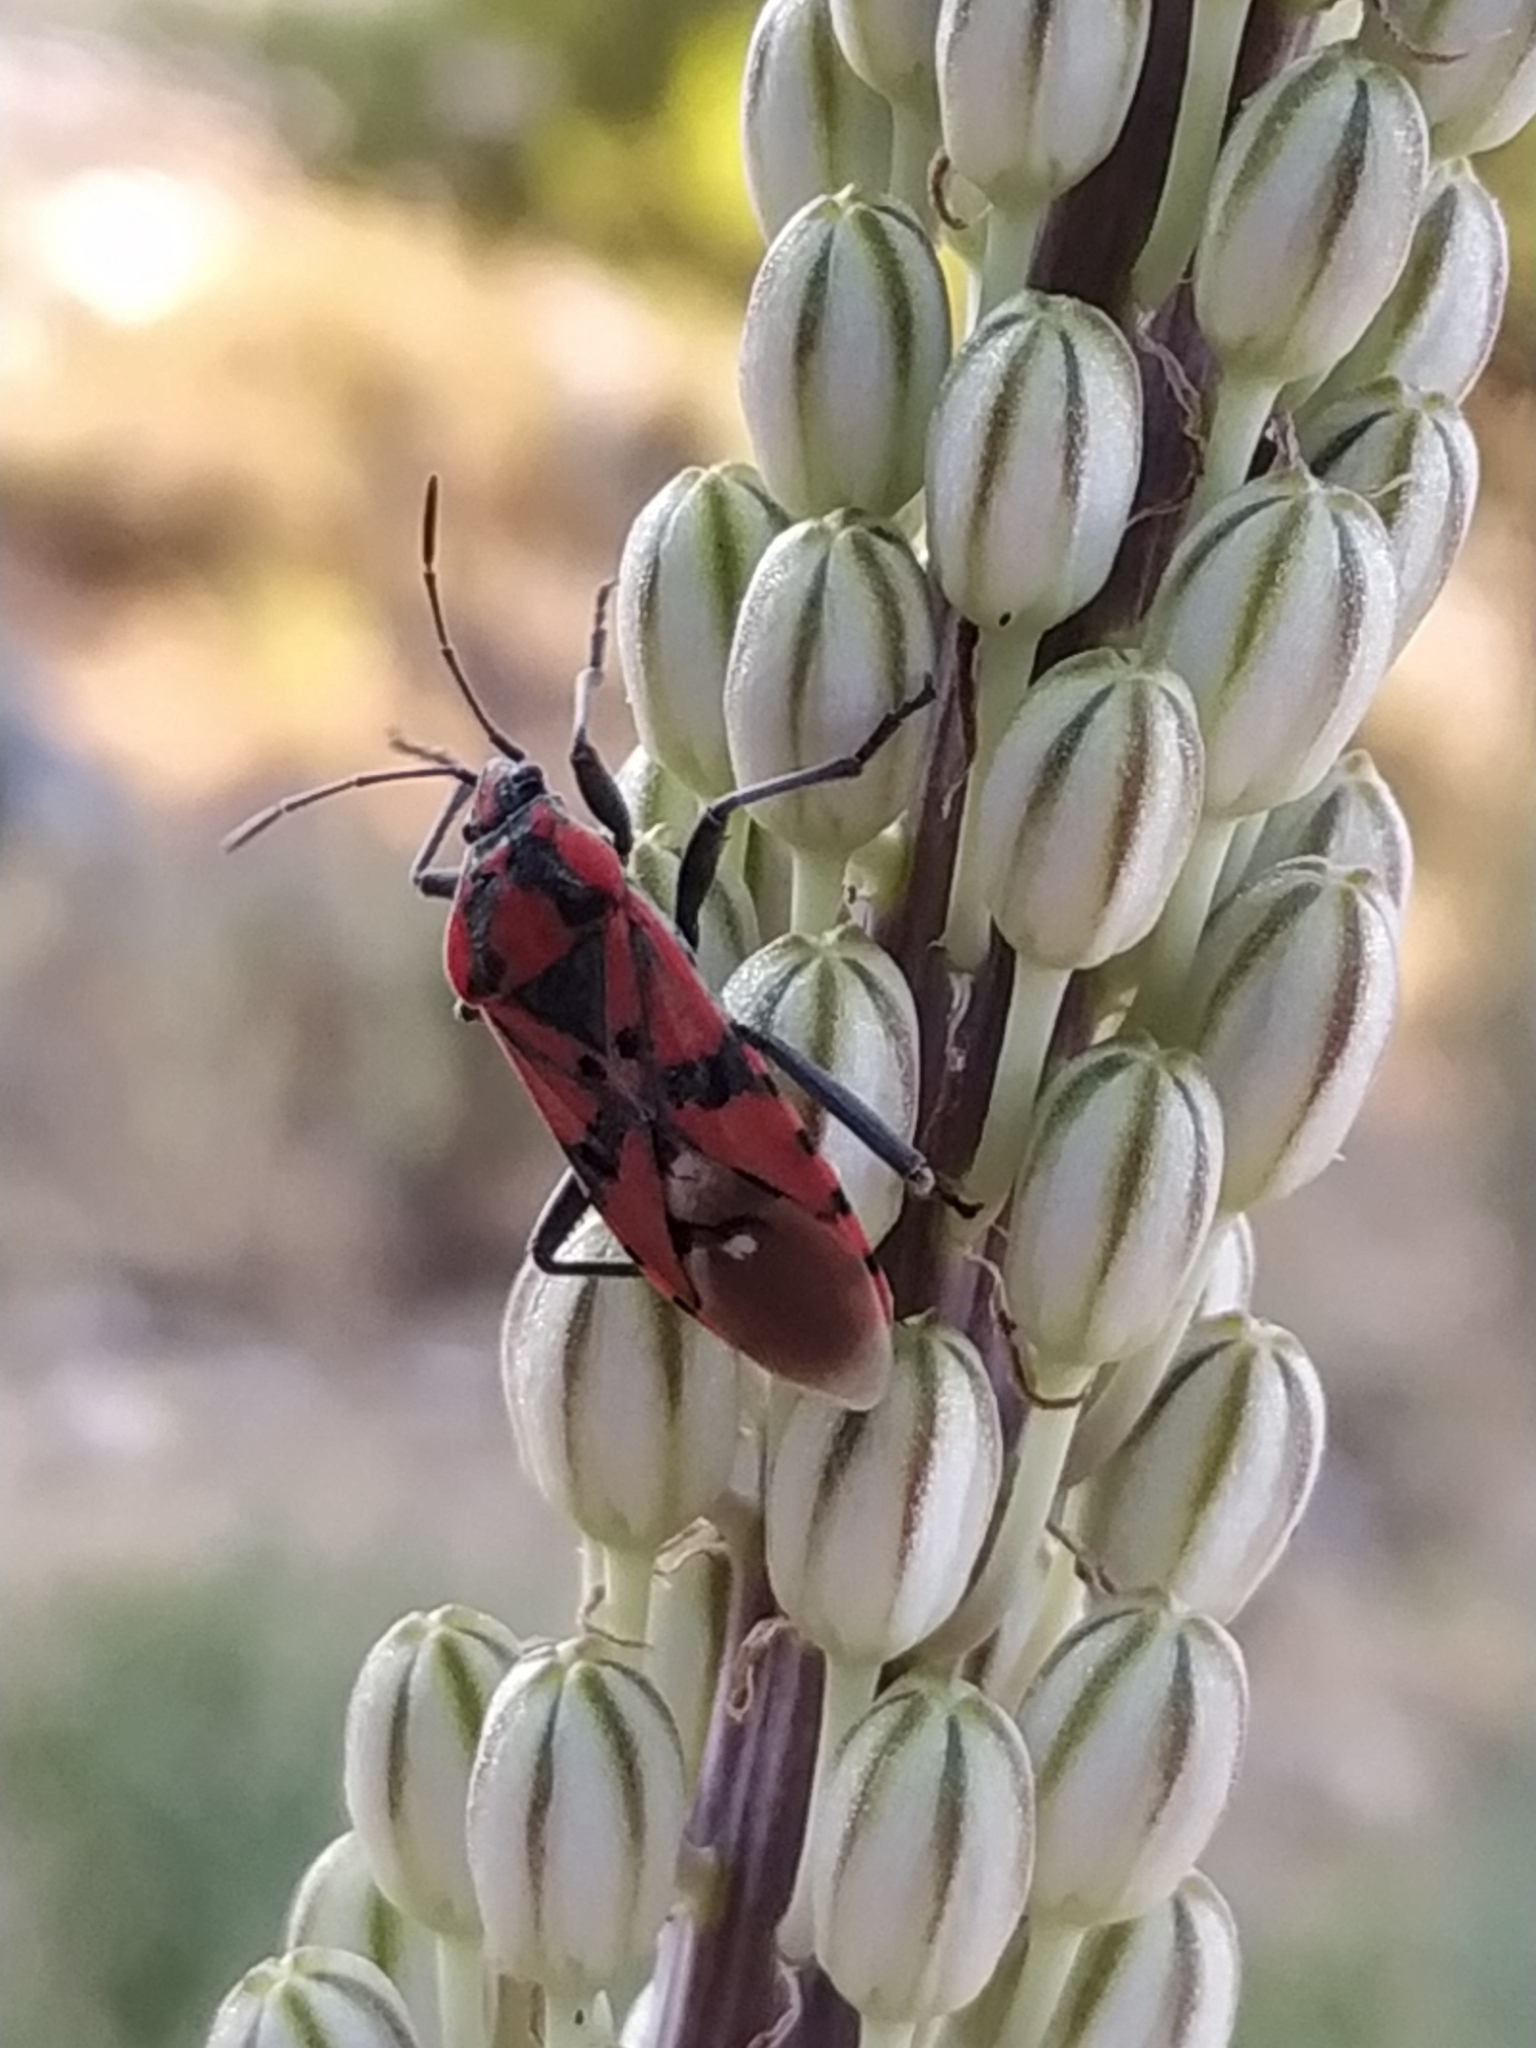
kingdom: Animalia
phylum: Arthropoda
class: Insecta
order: Hemiptera
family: Lygaeidae
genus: Spilostethus
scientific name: Spilostethus pandurus
